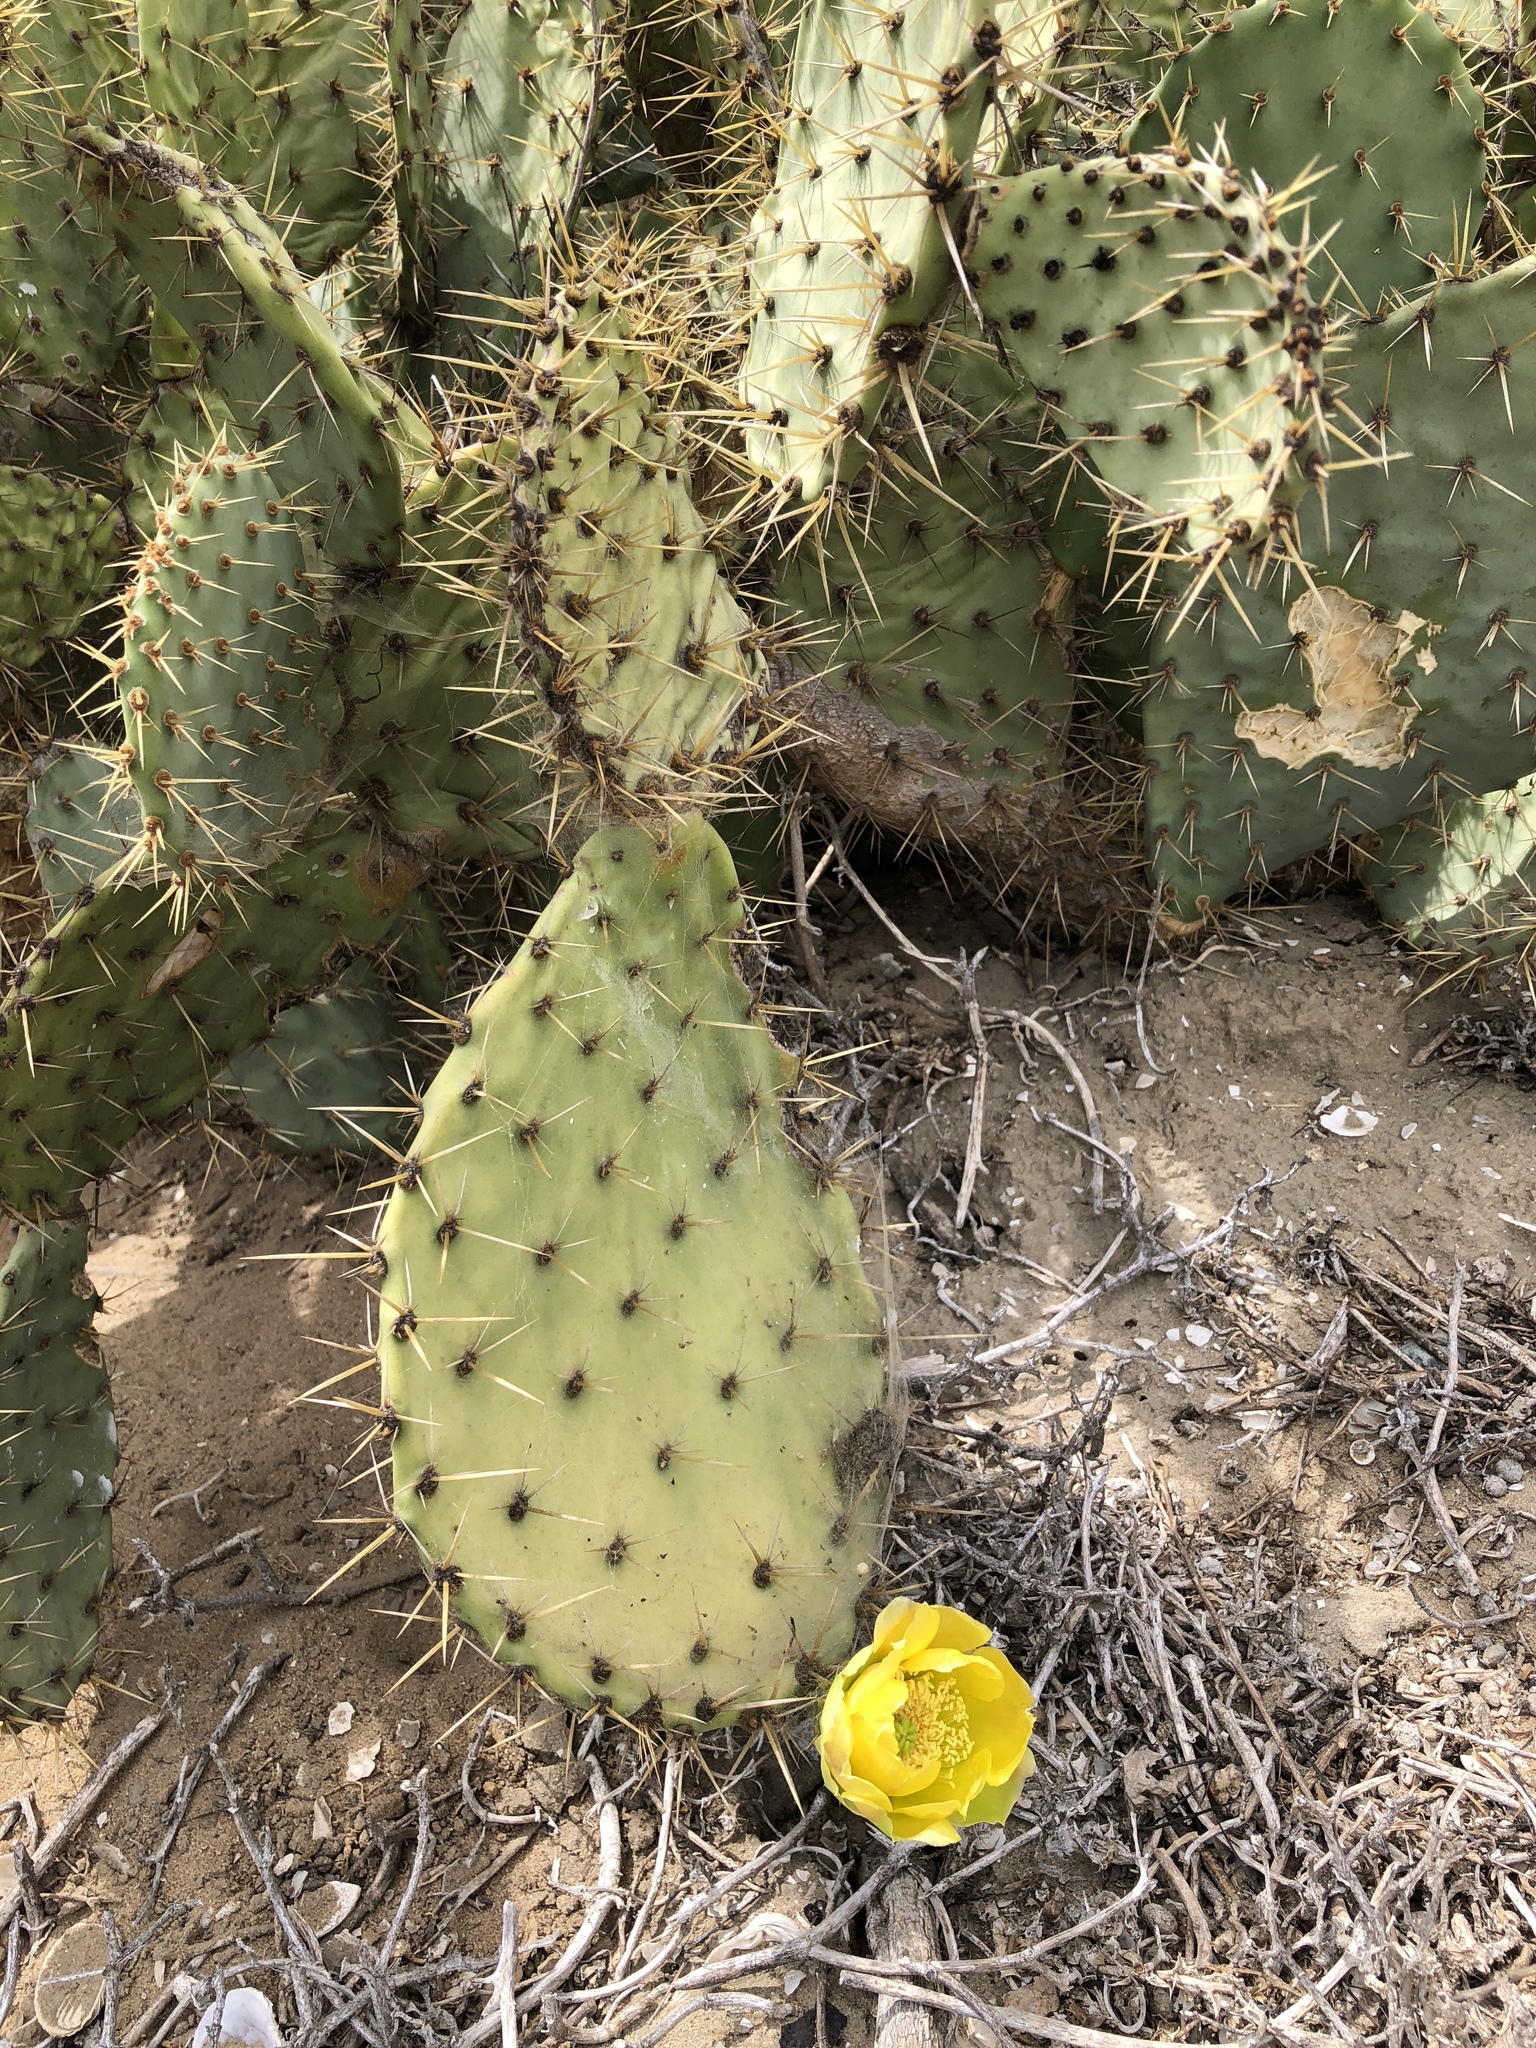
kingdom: Plantae
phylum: Tracheophyta
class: Magnoliopsida
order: Caryophyllales
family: Cactaceae
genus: Opuntia
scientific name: Opuntia littoralis
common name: Coastal prickly-pear
